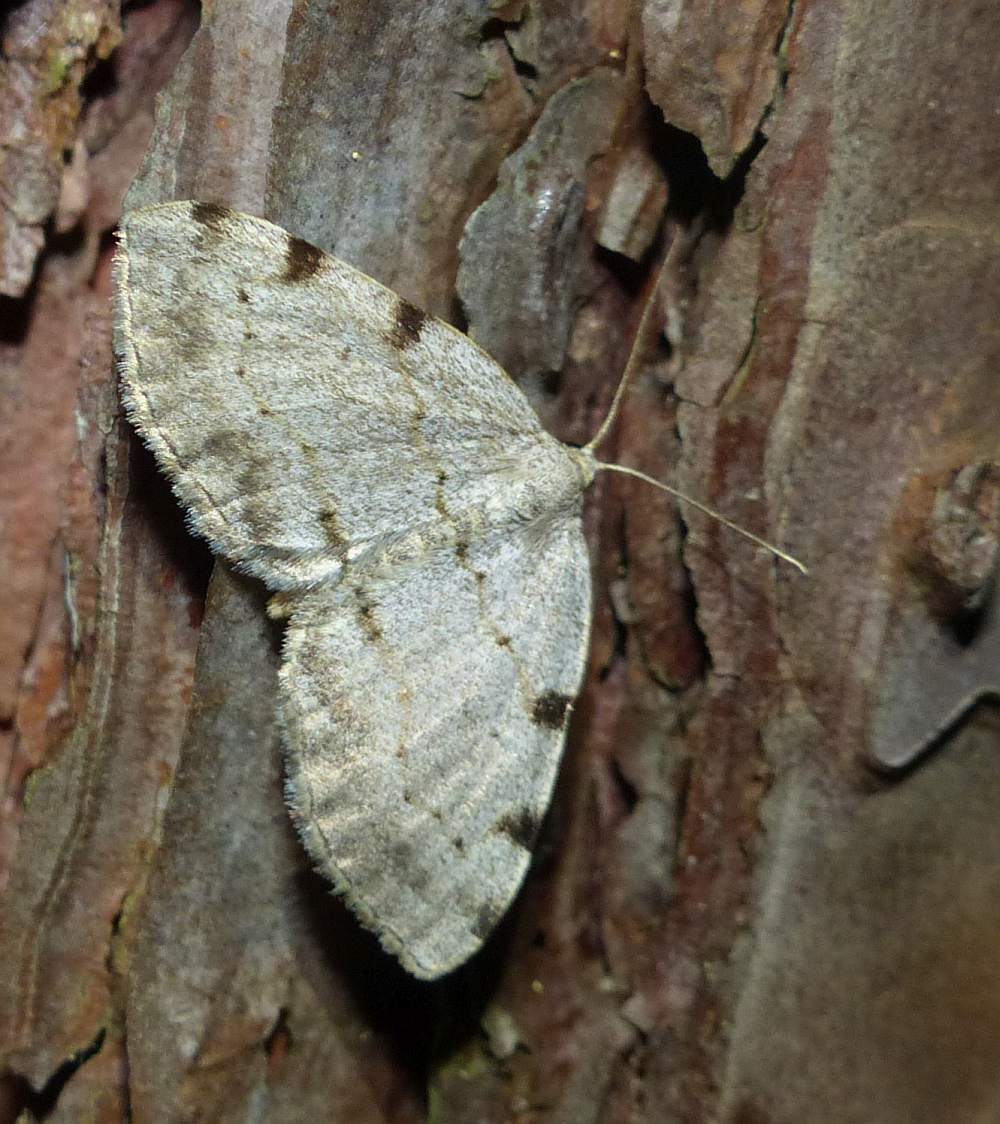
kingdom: Animalia
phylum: Arthropoda
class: Insecta
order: Lepidoptera
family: Geometridae
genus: Heterophleps
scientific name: Heterophleps refusaria
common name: Three-patched bigwing
